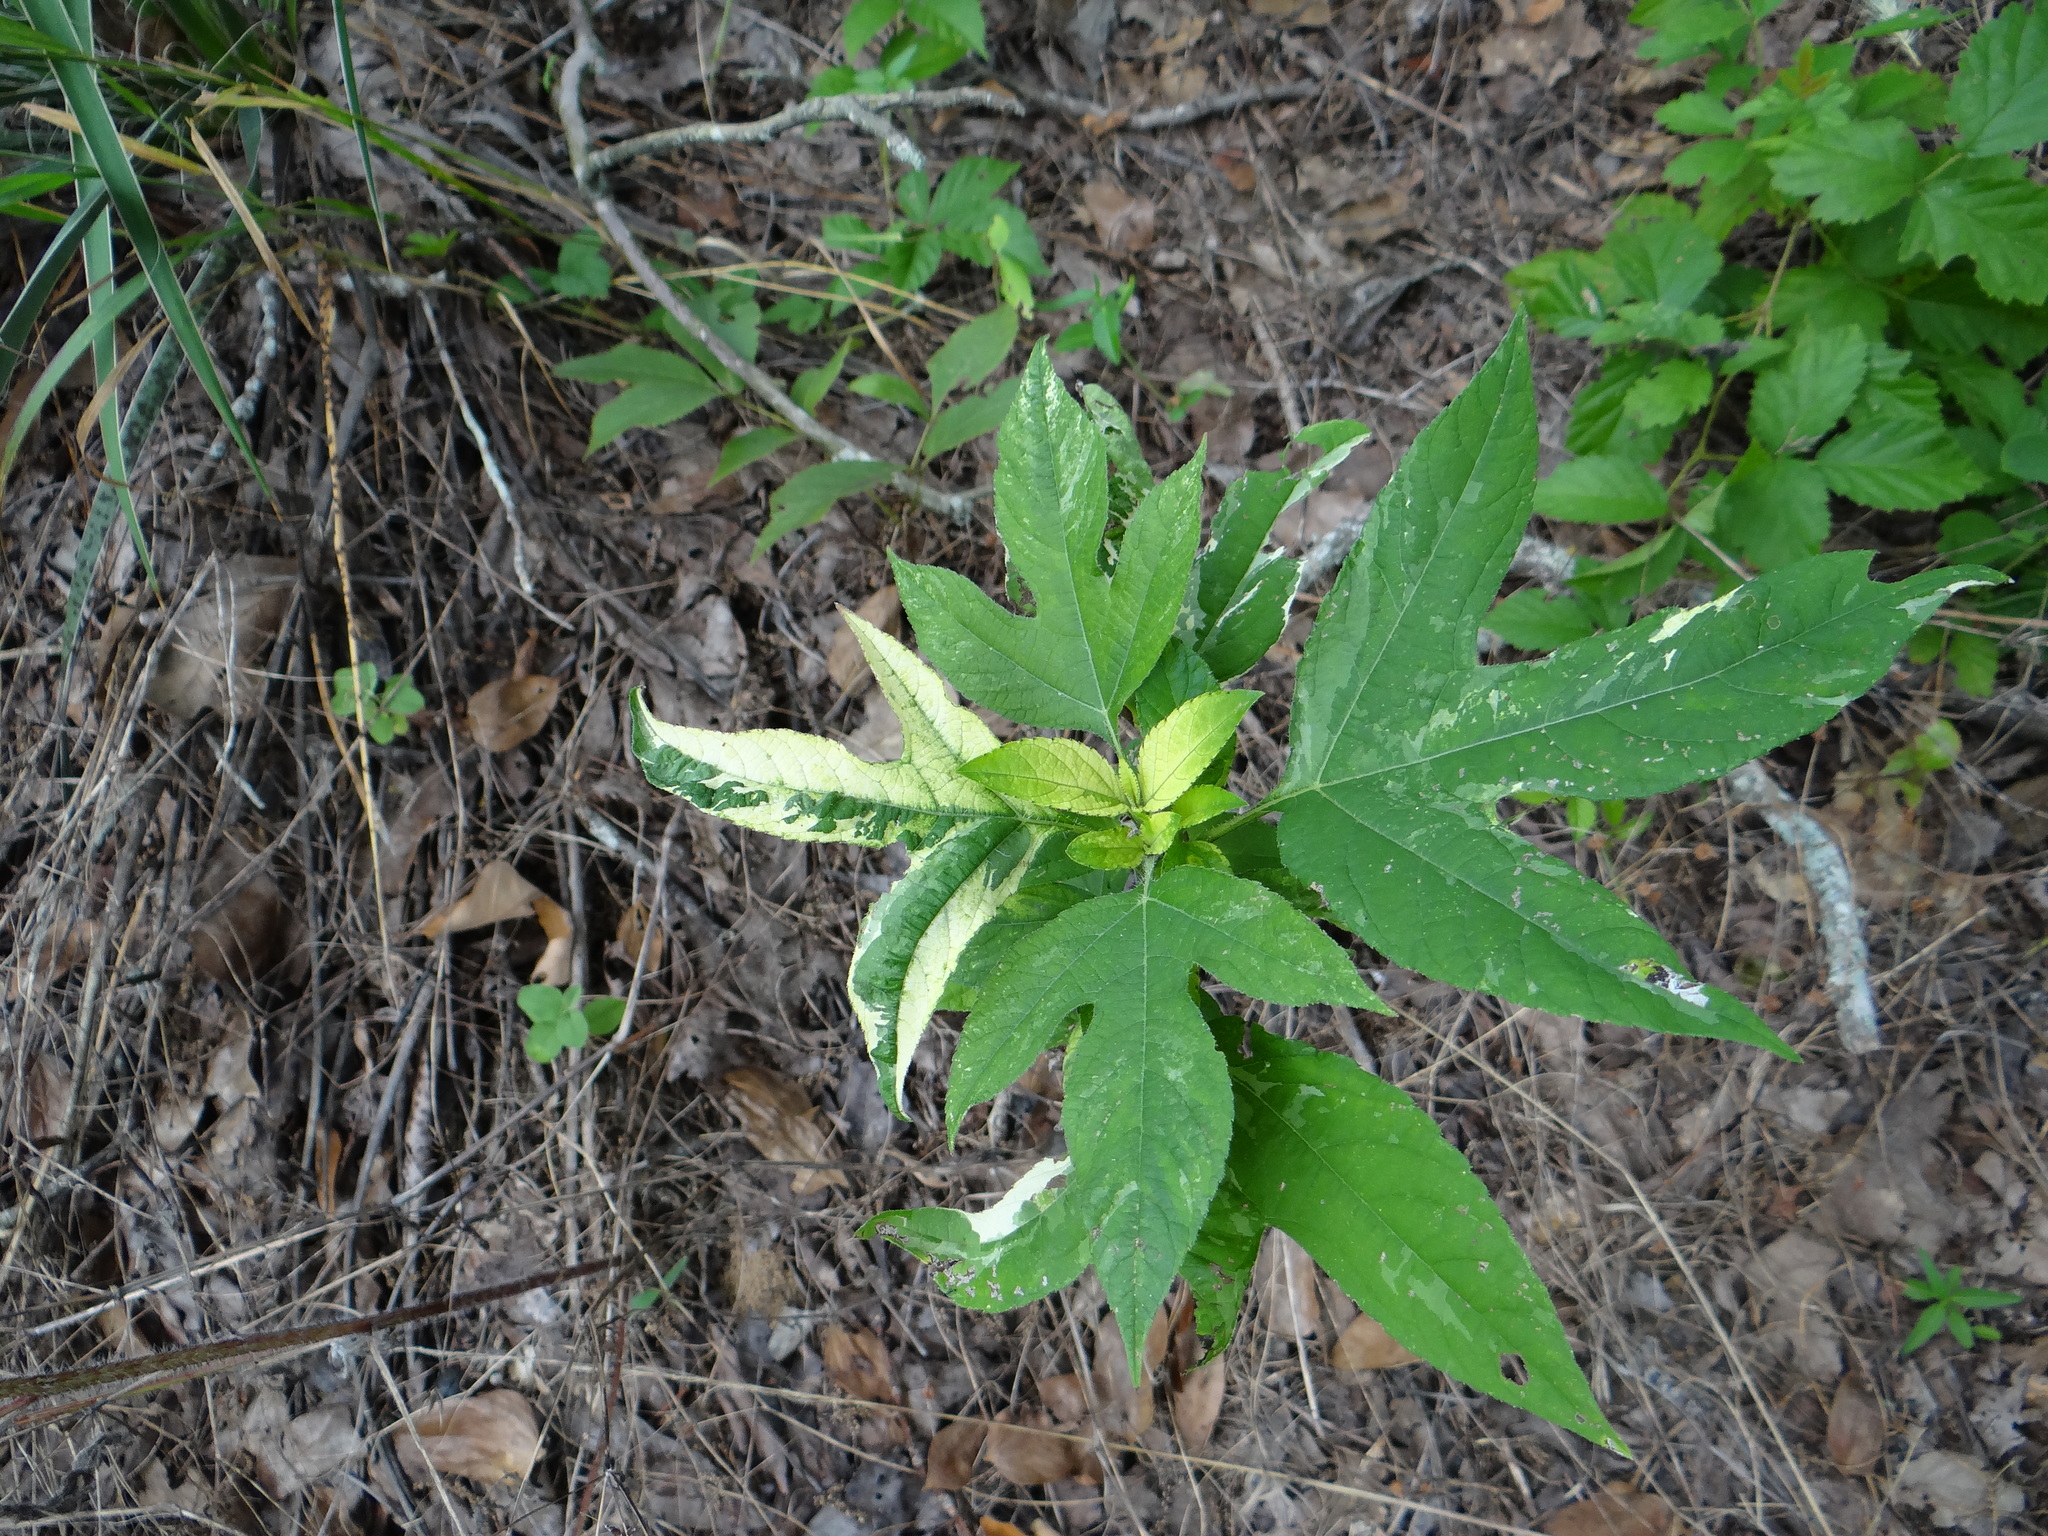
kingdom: Plantae
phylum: Tracheophyta
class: Magnoliopsida
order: Asterales
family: Asteraceae
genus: Ambrosia
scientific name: Ambrosia trifida
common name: Giant ragweed
